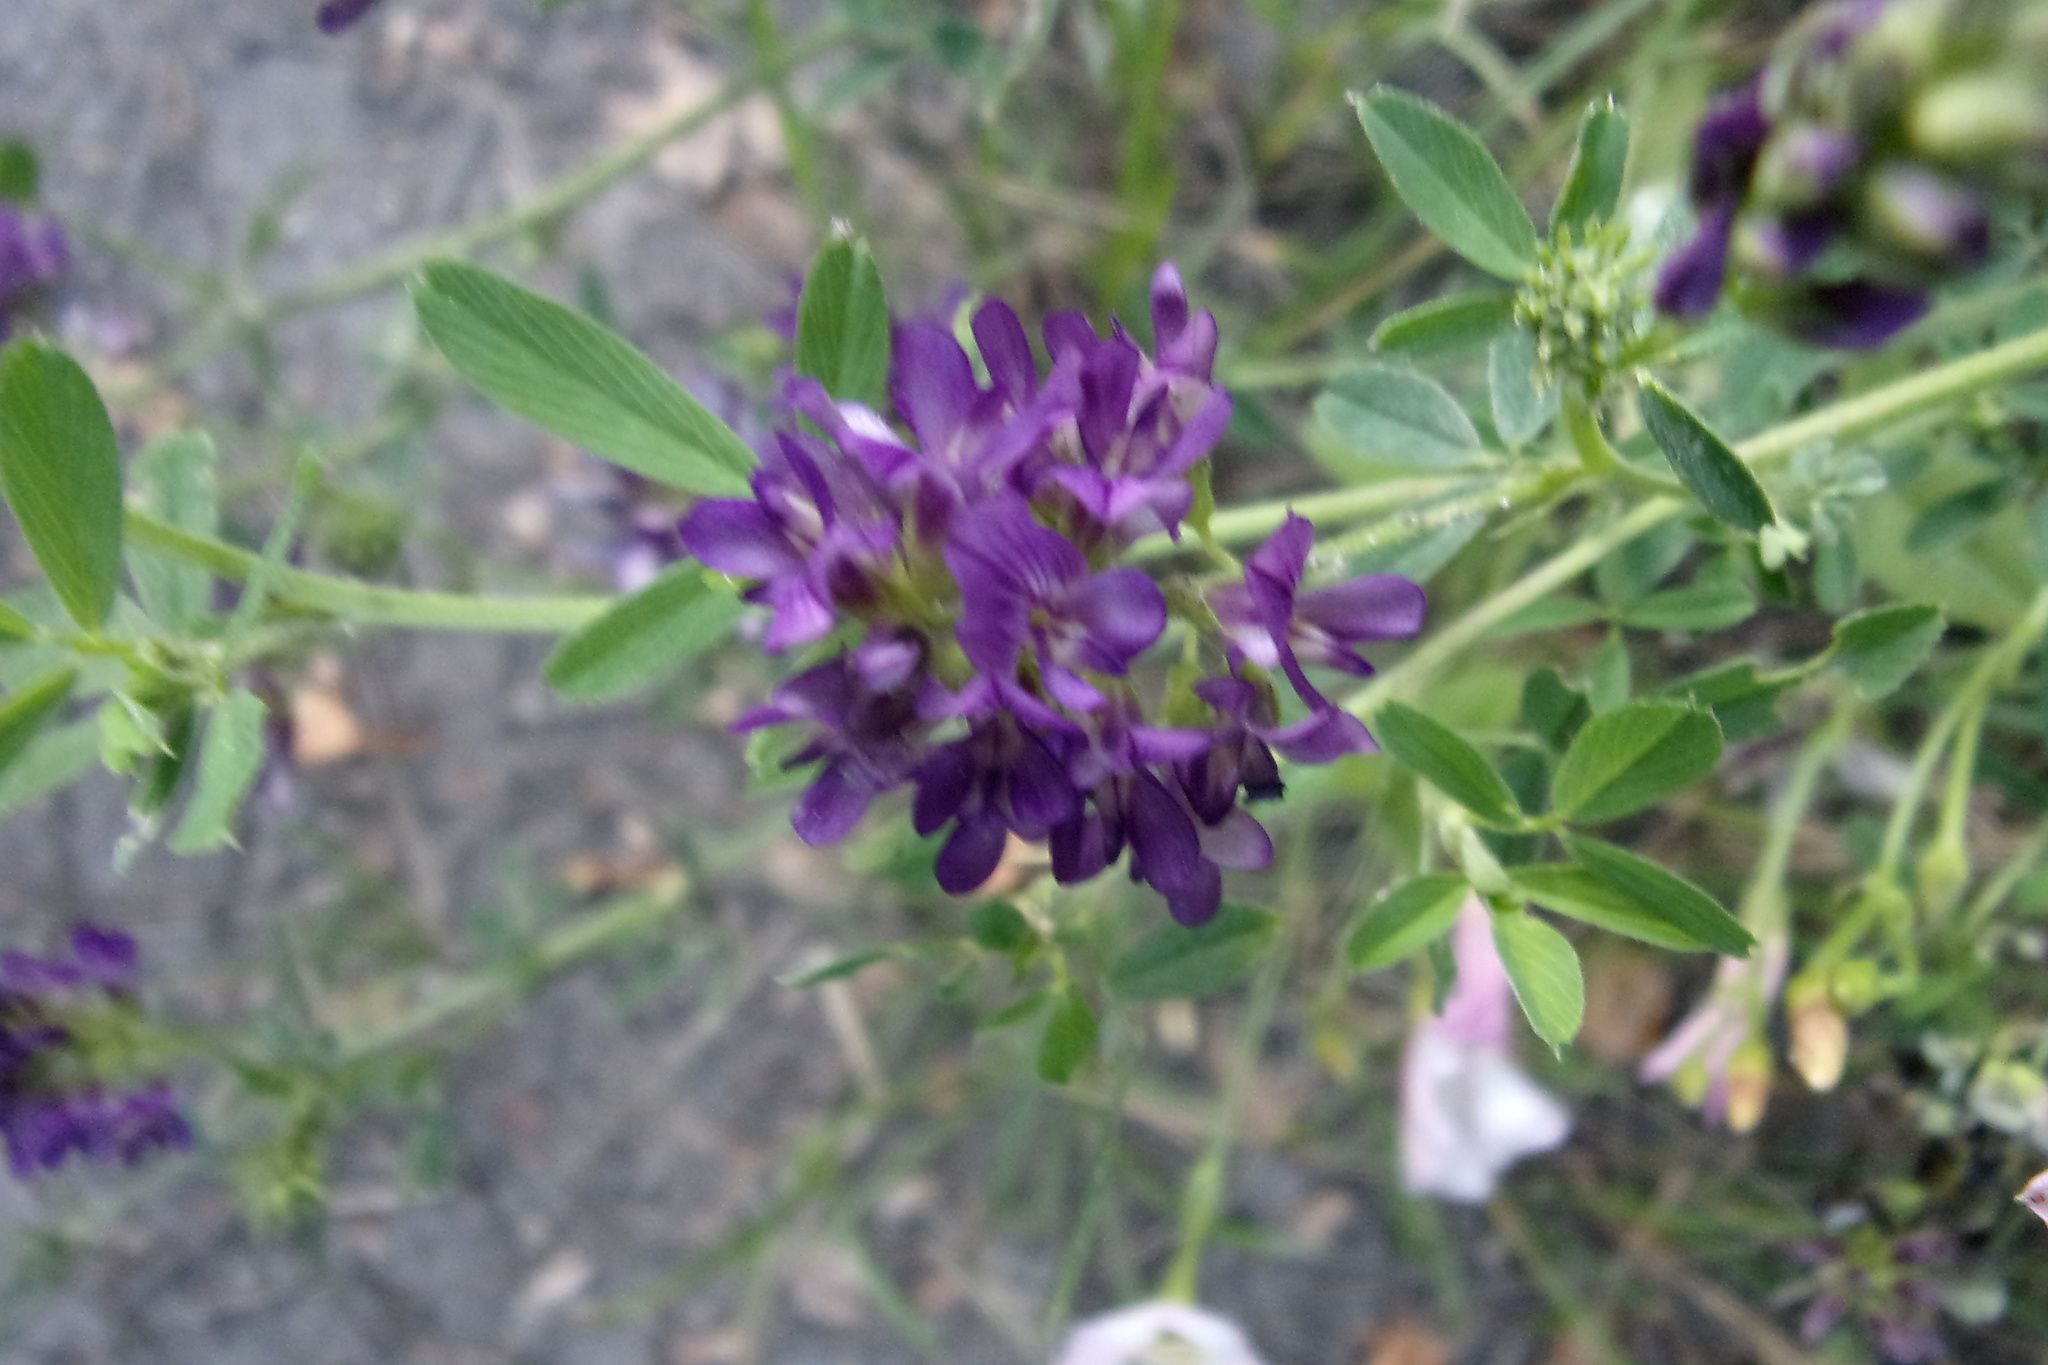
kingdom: Plantae
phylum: Tracheophyta
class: Magnoliopsida
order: Fabales
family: Fabaceae
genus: Medicago
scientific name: Medicago varia
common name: Sand lucerne
